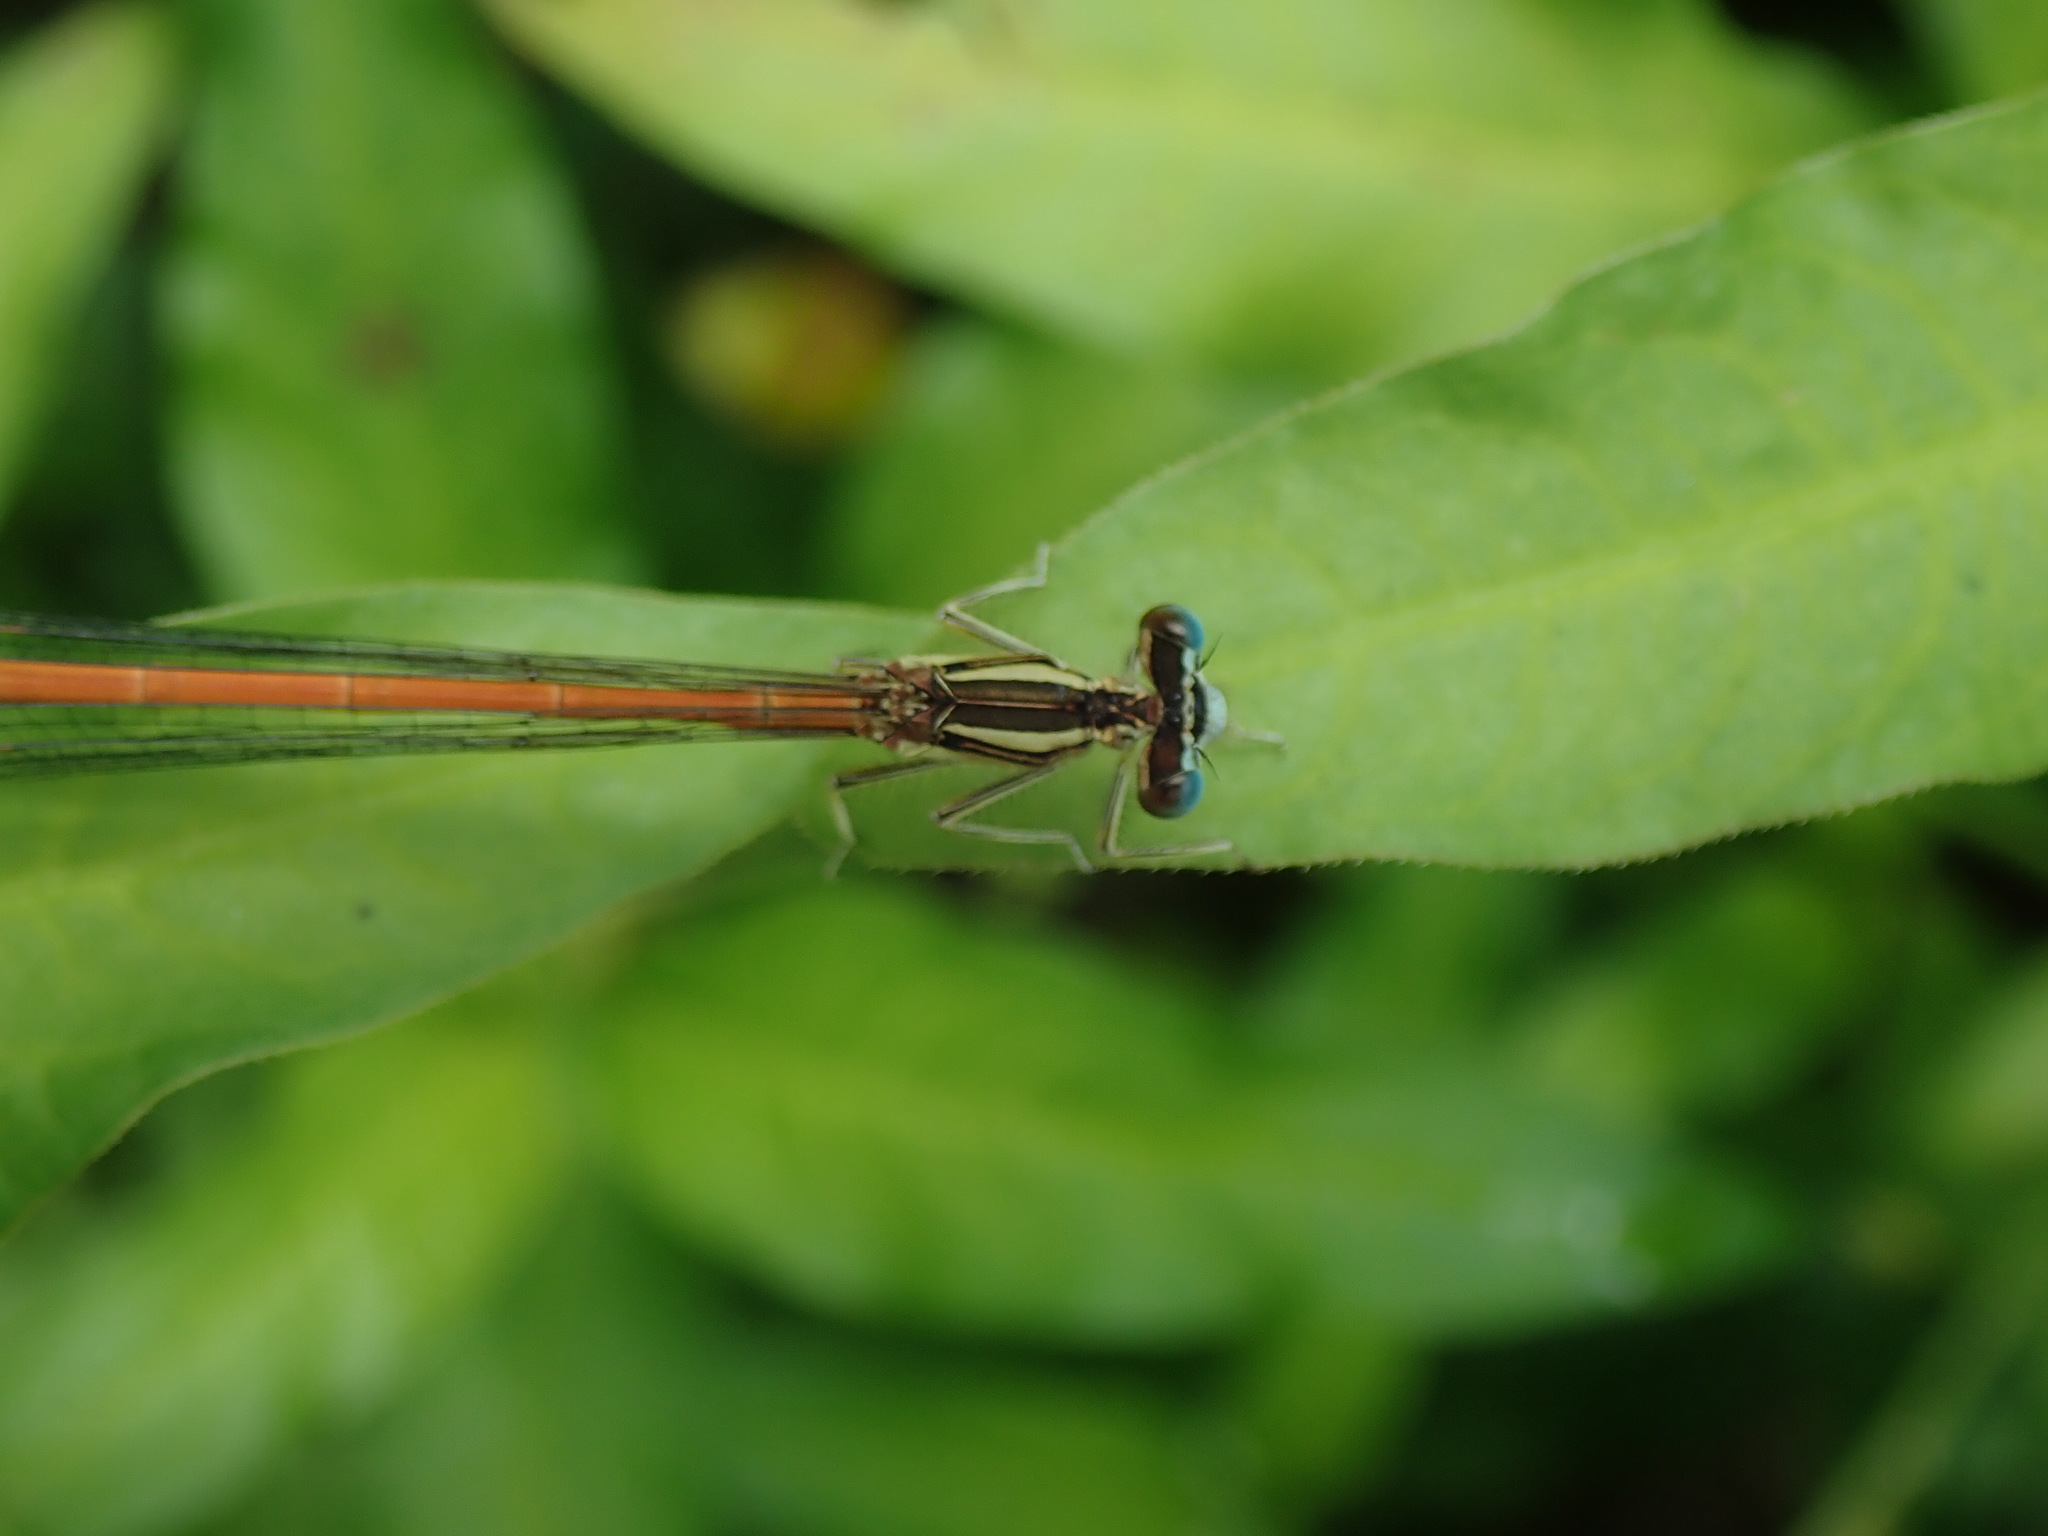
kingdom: Animalia
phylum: Arthropoda
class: Insecta
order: Odonata
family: Platycnemididae
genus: Platycnemis
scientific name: Platycnemis acutipennis
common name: Orange featherleg
